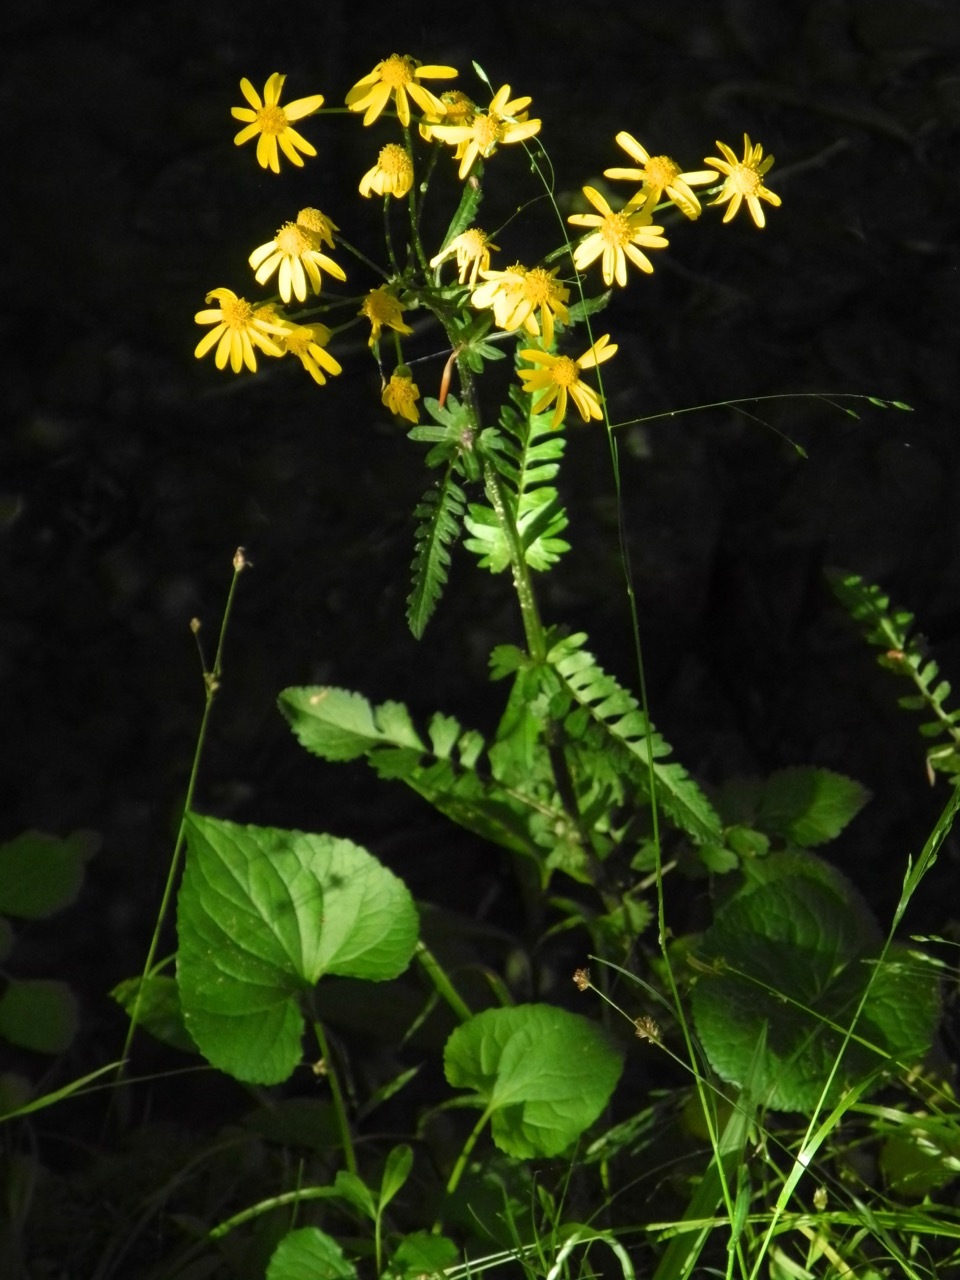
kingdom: Plantae
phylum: Tracheophyta
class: Magnoliopsida
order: Asterales
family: Asteraceae
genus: Packera
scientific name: Packera aurea
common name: Golden groundsel
